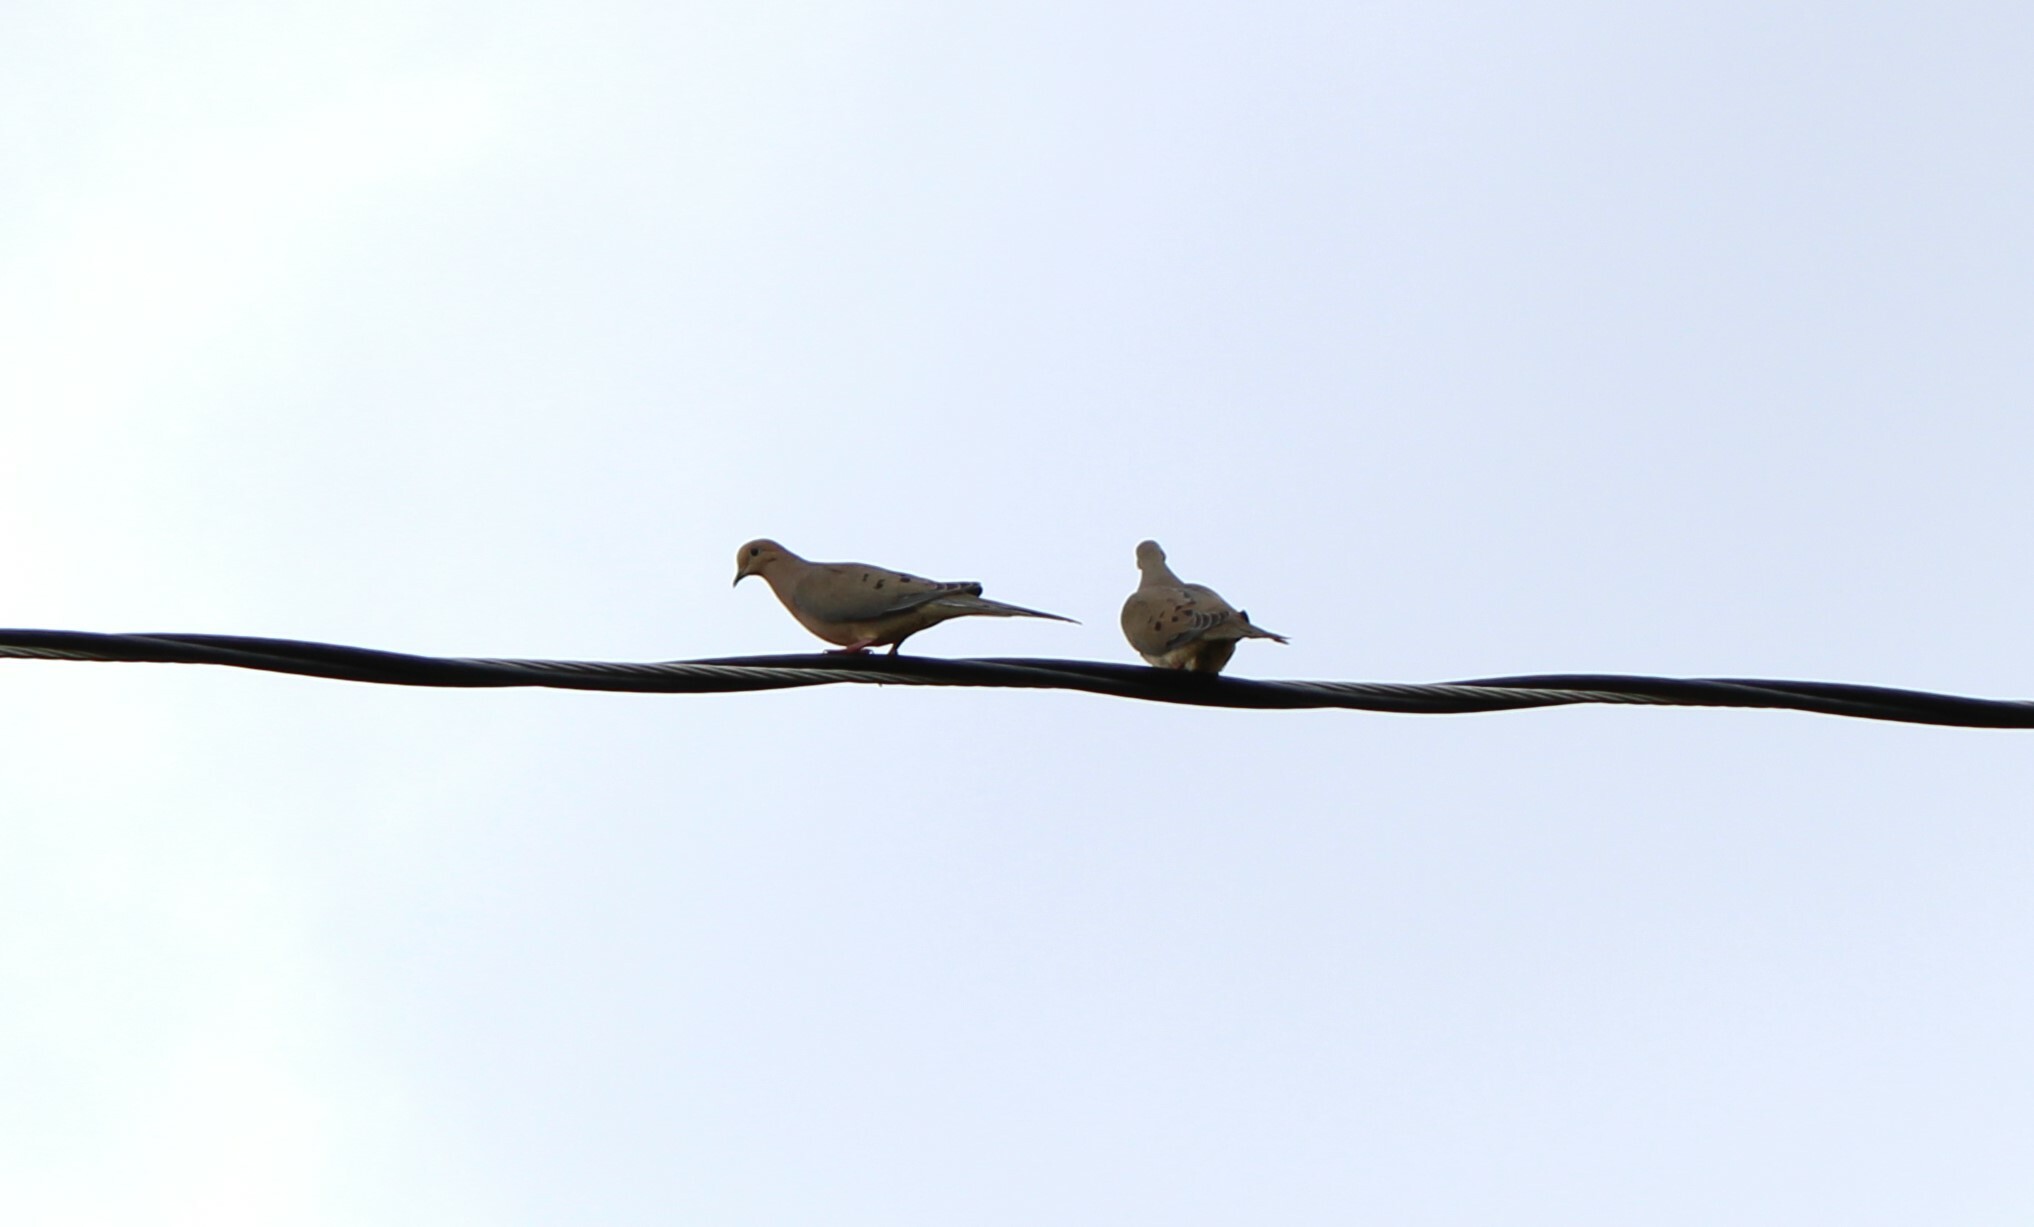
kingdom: Animalia
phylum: Chordata
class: Aves
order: Columbiformes
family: Columbidae
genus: Zenaida
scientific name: Zenaida macroura
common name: Mourning dove
